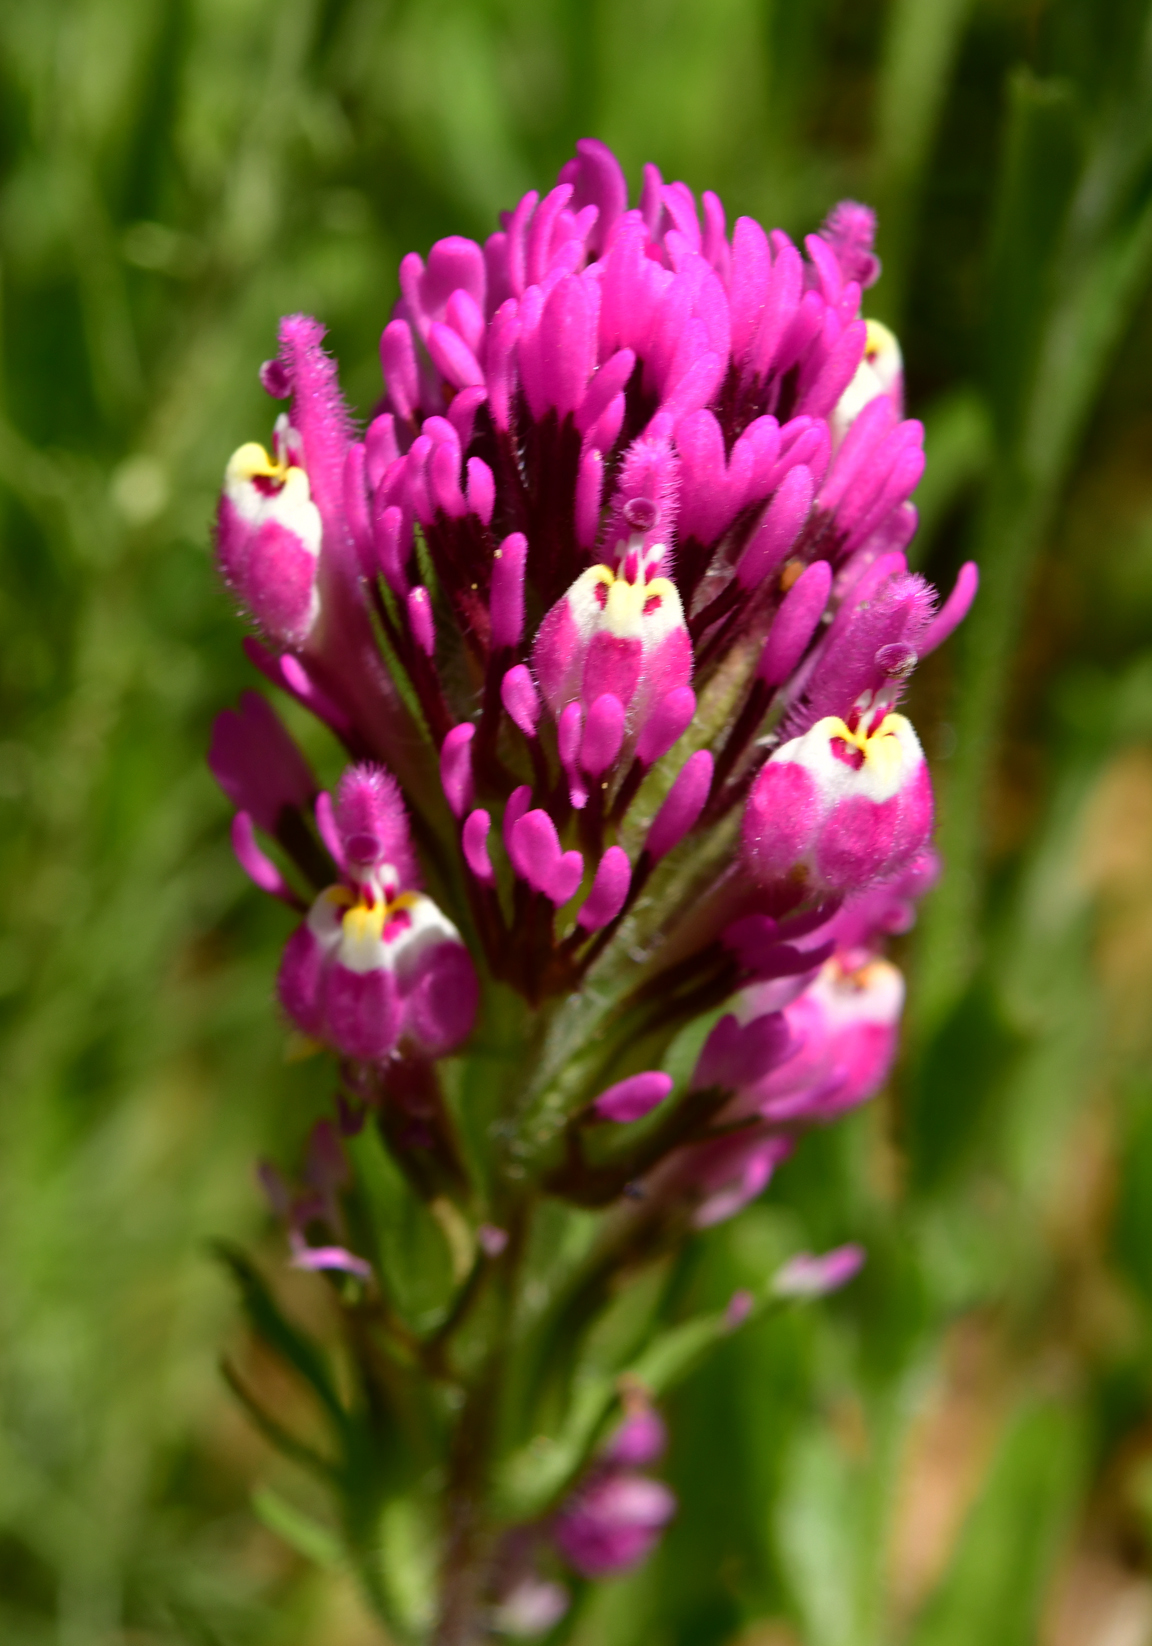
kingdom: Plantae
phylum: Tracheophyta
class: Magnoliopsida
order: Lamiales
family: Orobanchaceae
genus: Castilleja
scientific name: Castilleja exserta
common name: Purple owl-clover
